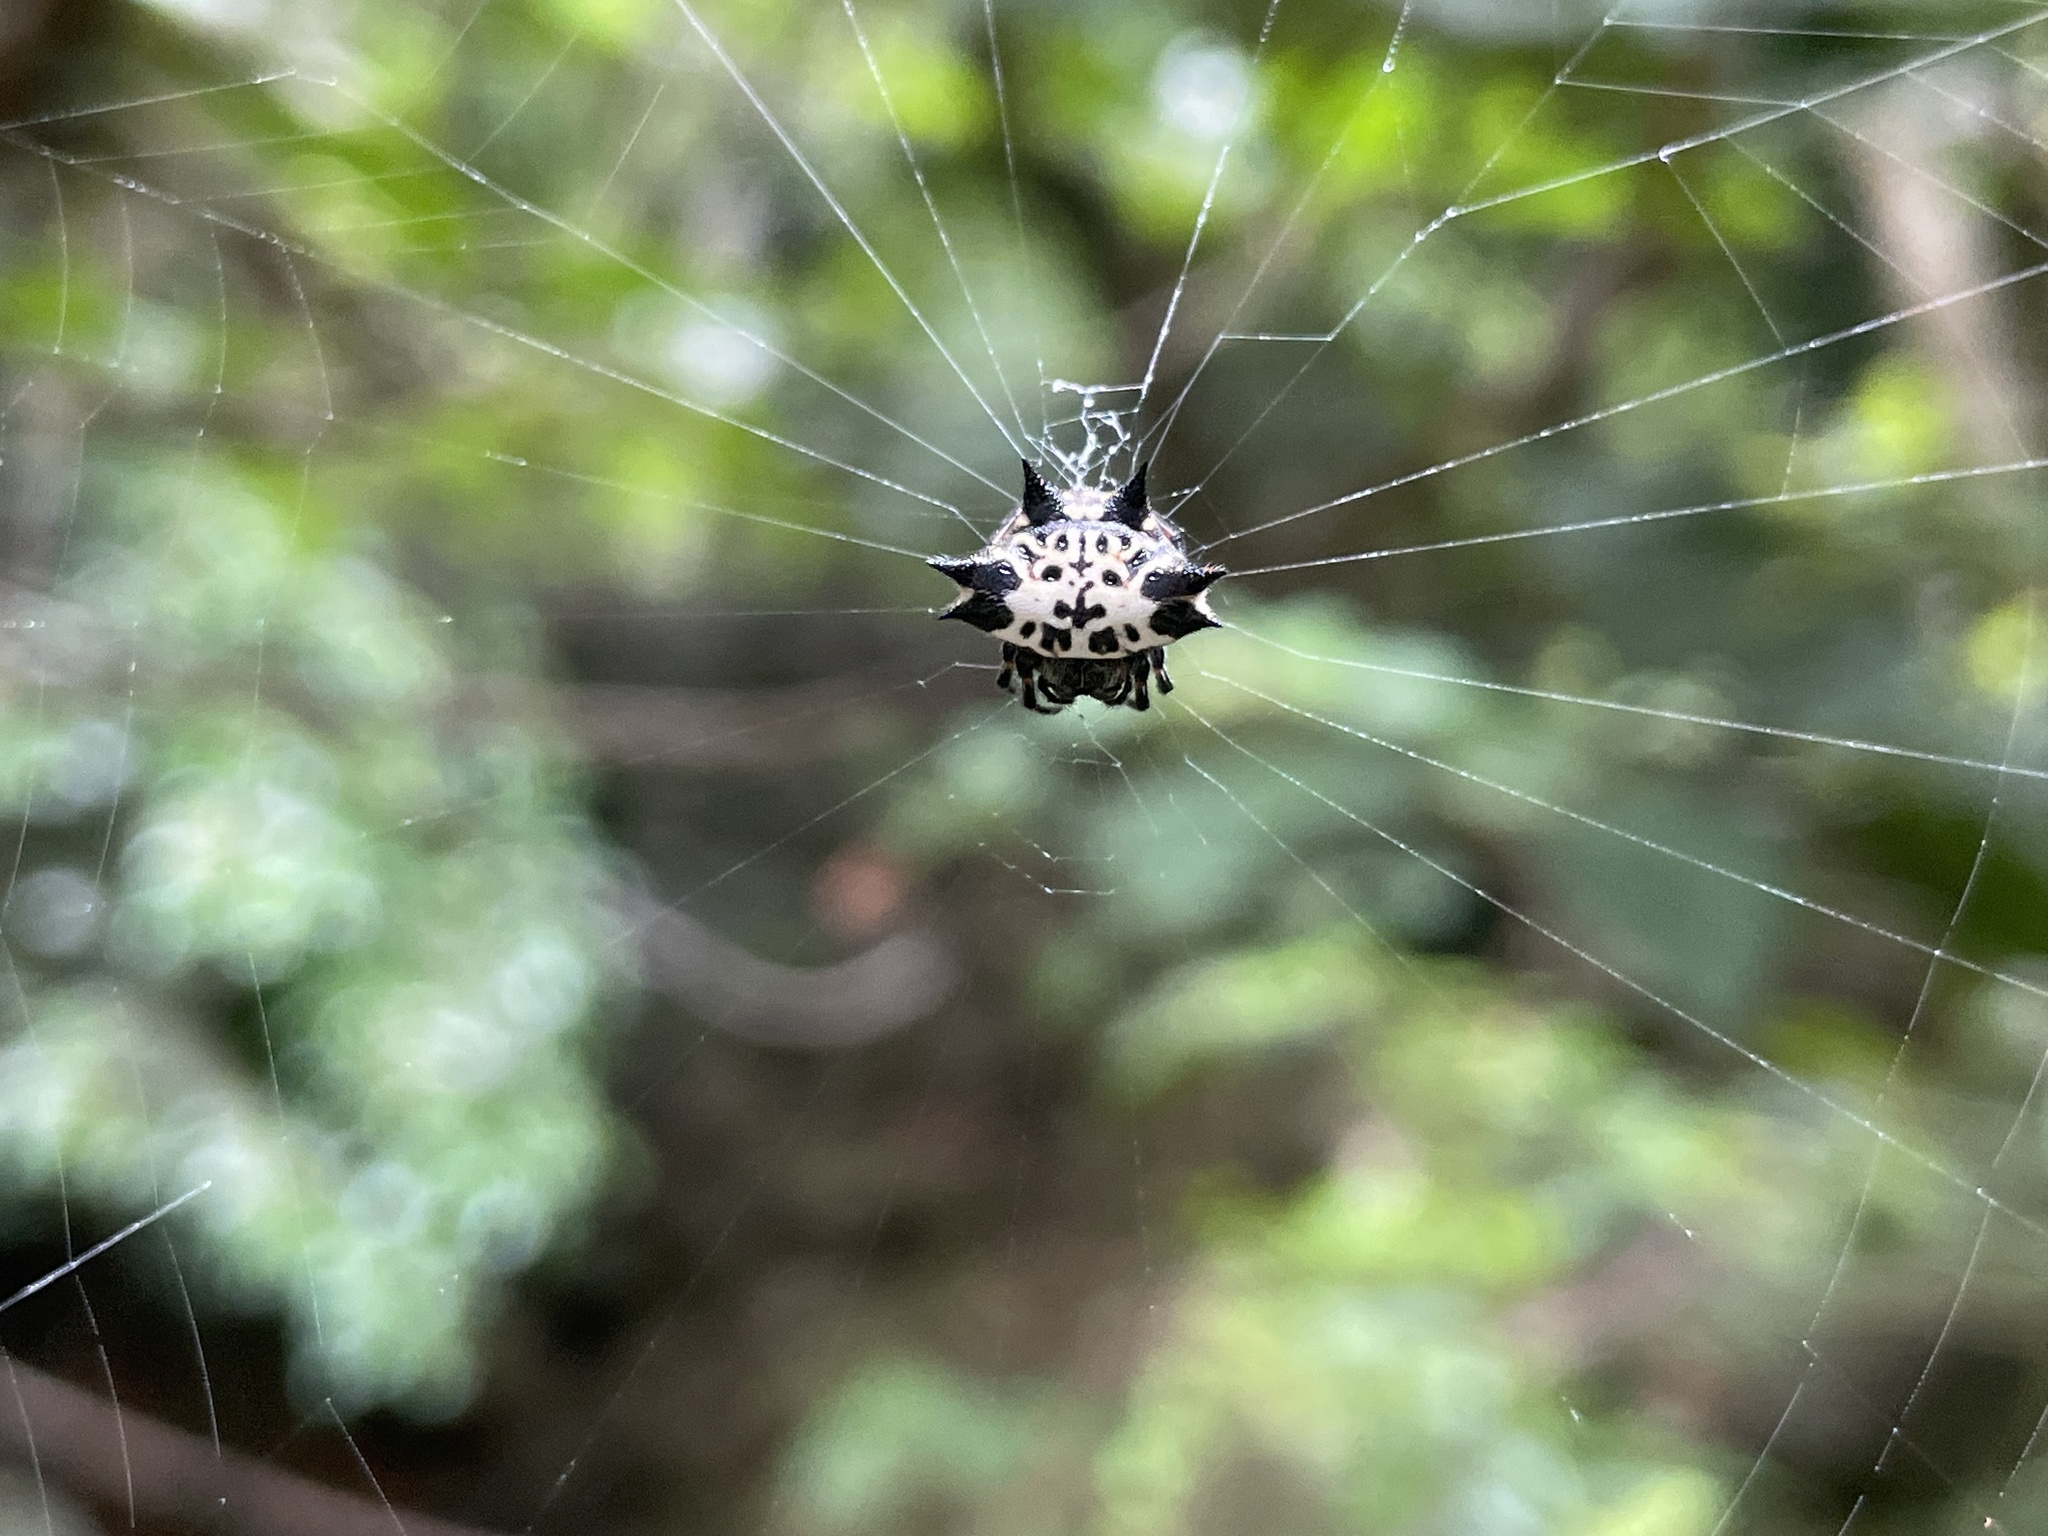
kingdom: Animalia
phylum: Arthropoda
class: Arachnida
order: Araneae
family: Araneidae
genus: Gasteracantha
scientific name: Gasteracantha kuhli
